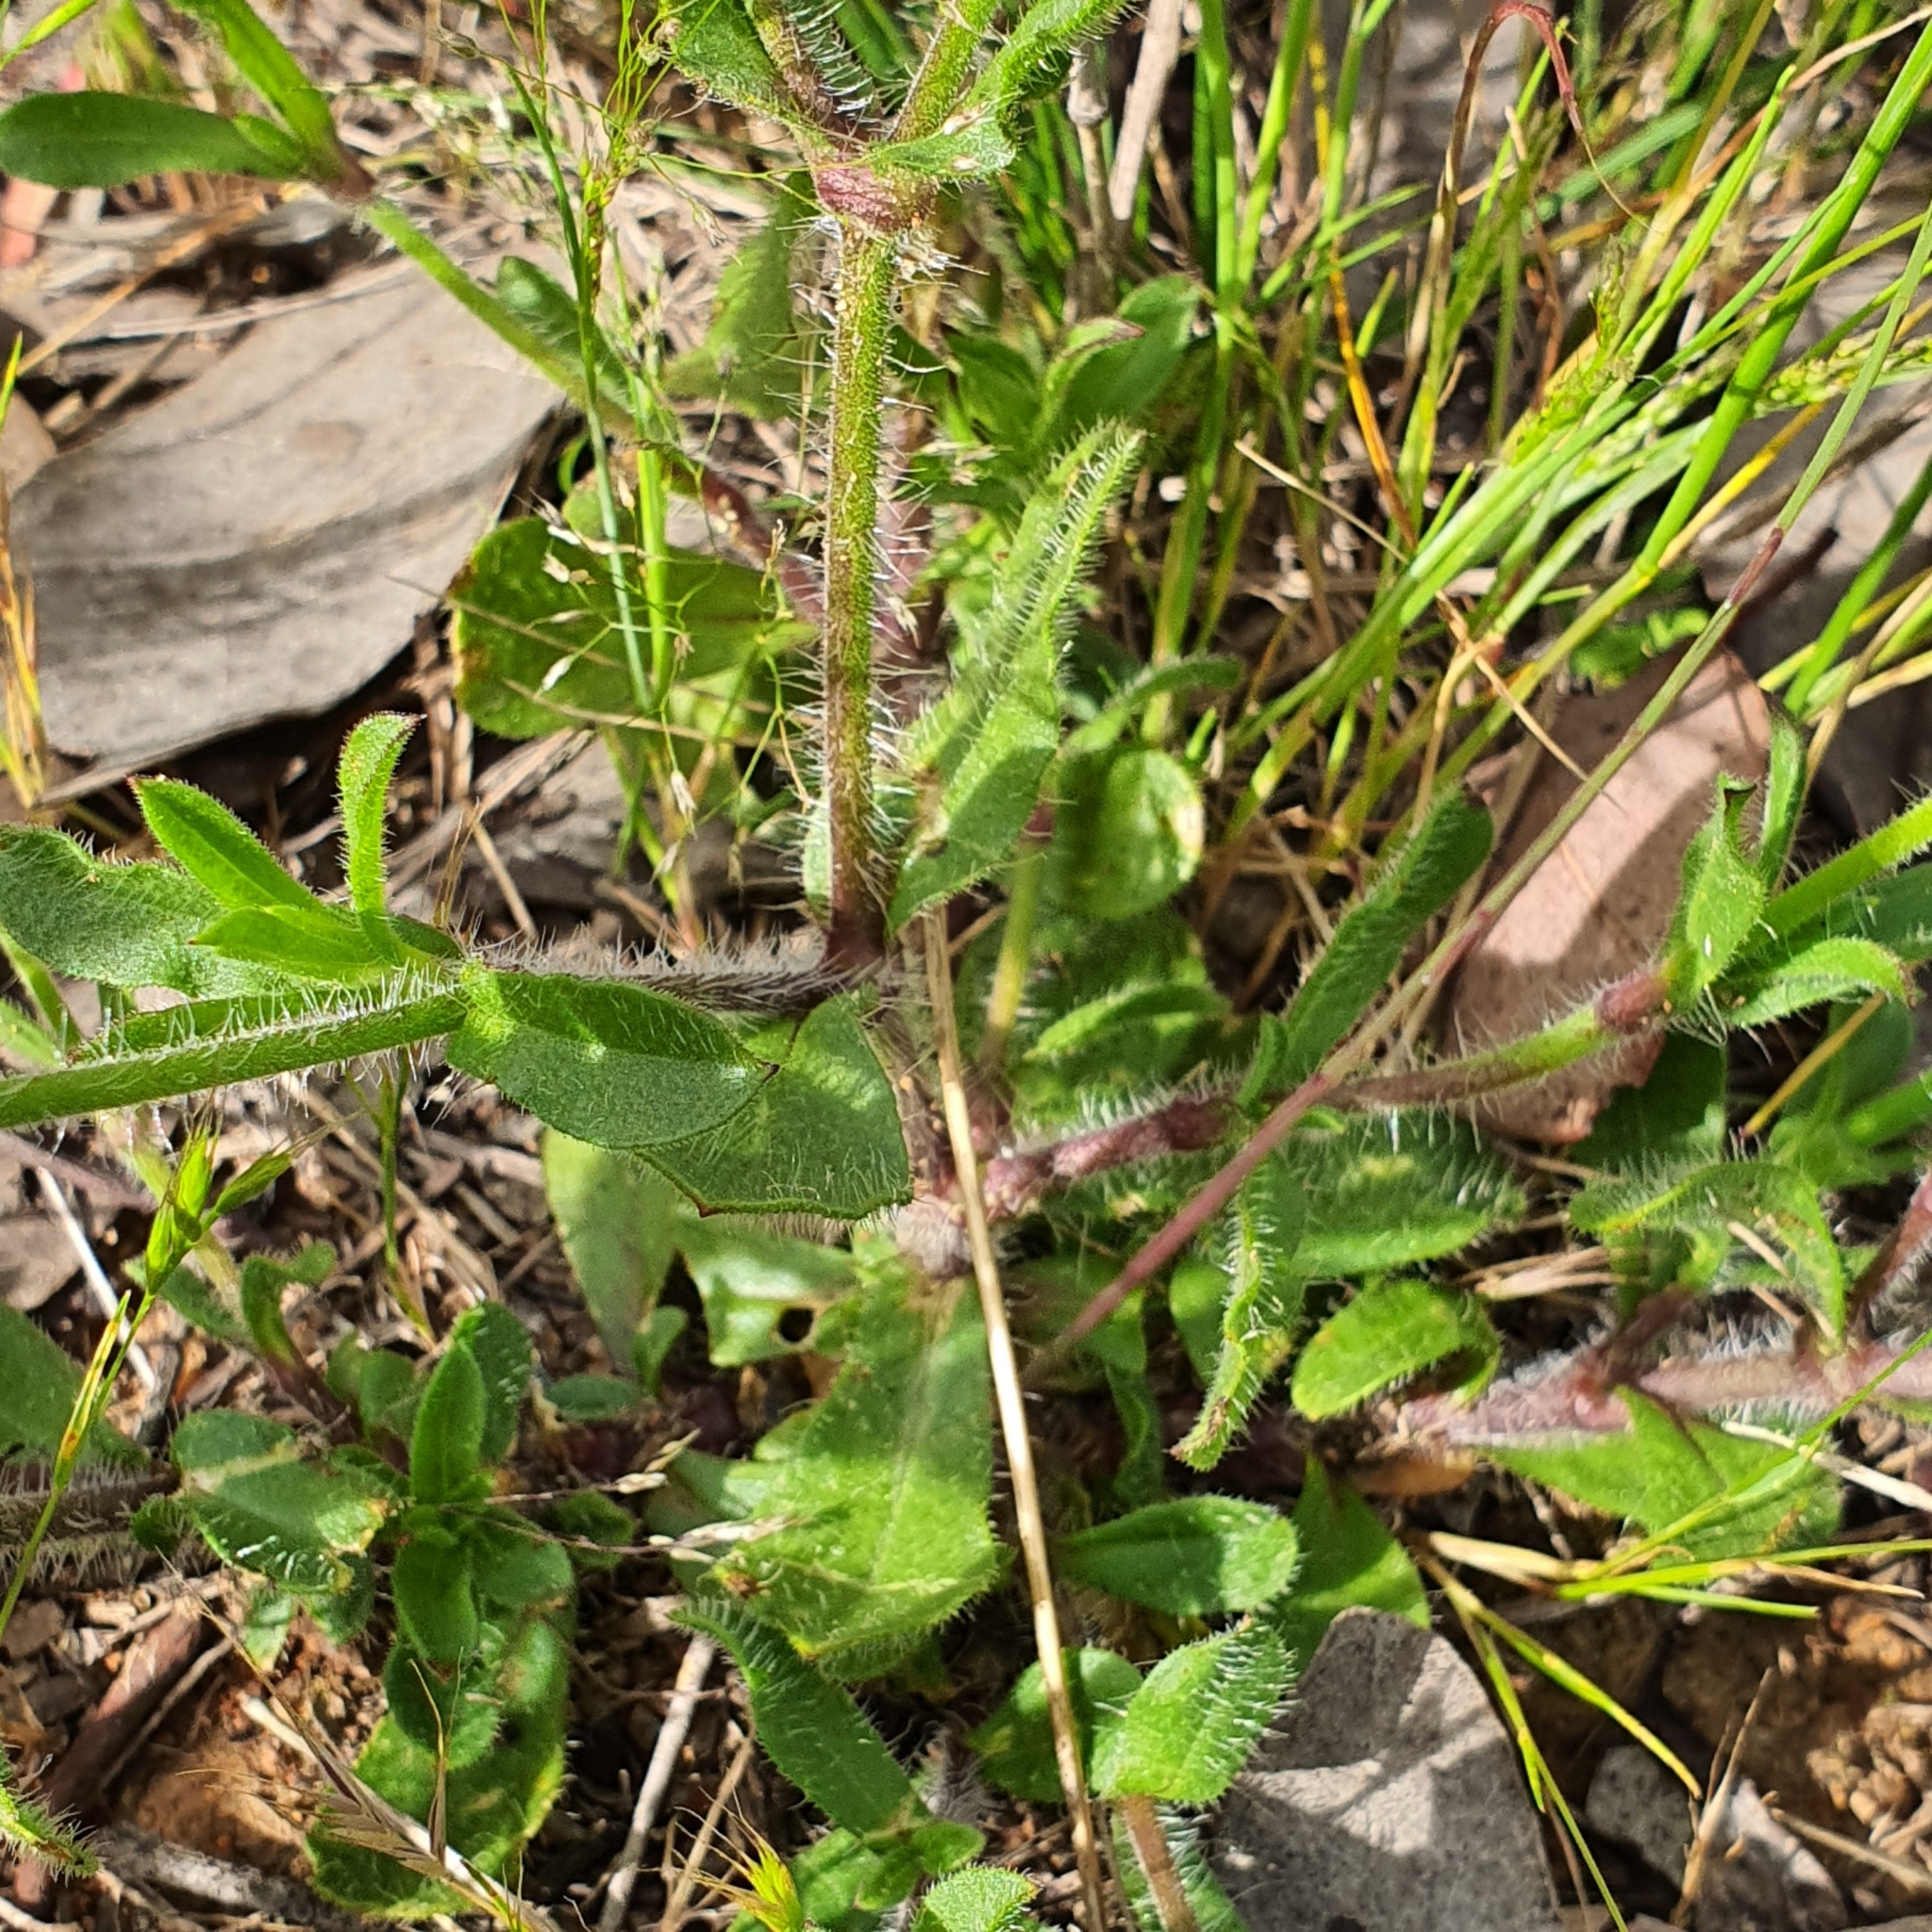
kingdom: Plantae
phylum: Tracheophyta
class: Magnoliopsida
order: Caryophyllales
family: Caryophyllaceae
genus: Silene
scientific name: Silene gallica
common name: Small-flowered catchfly
